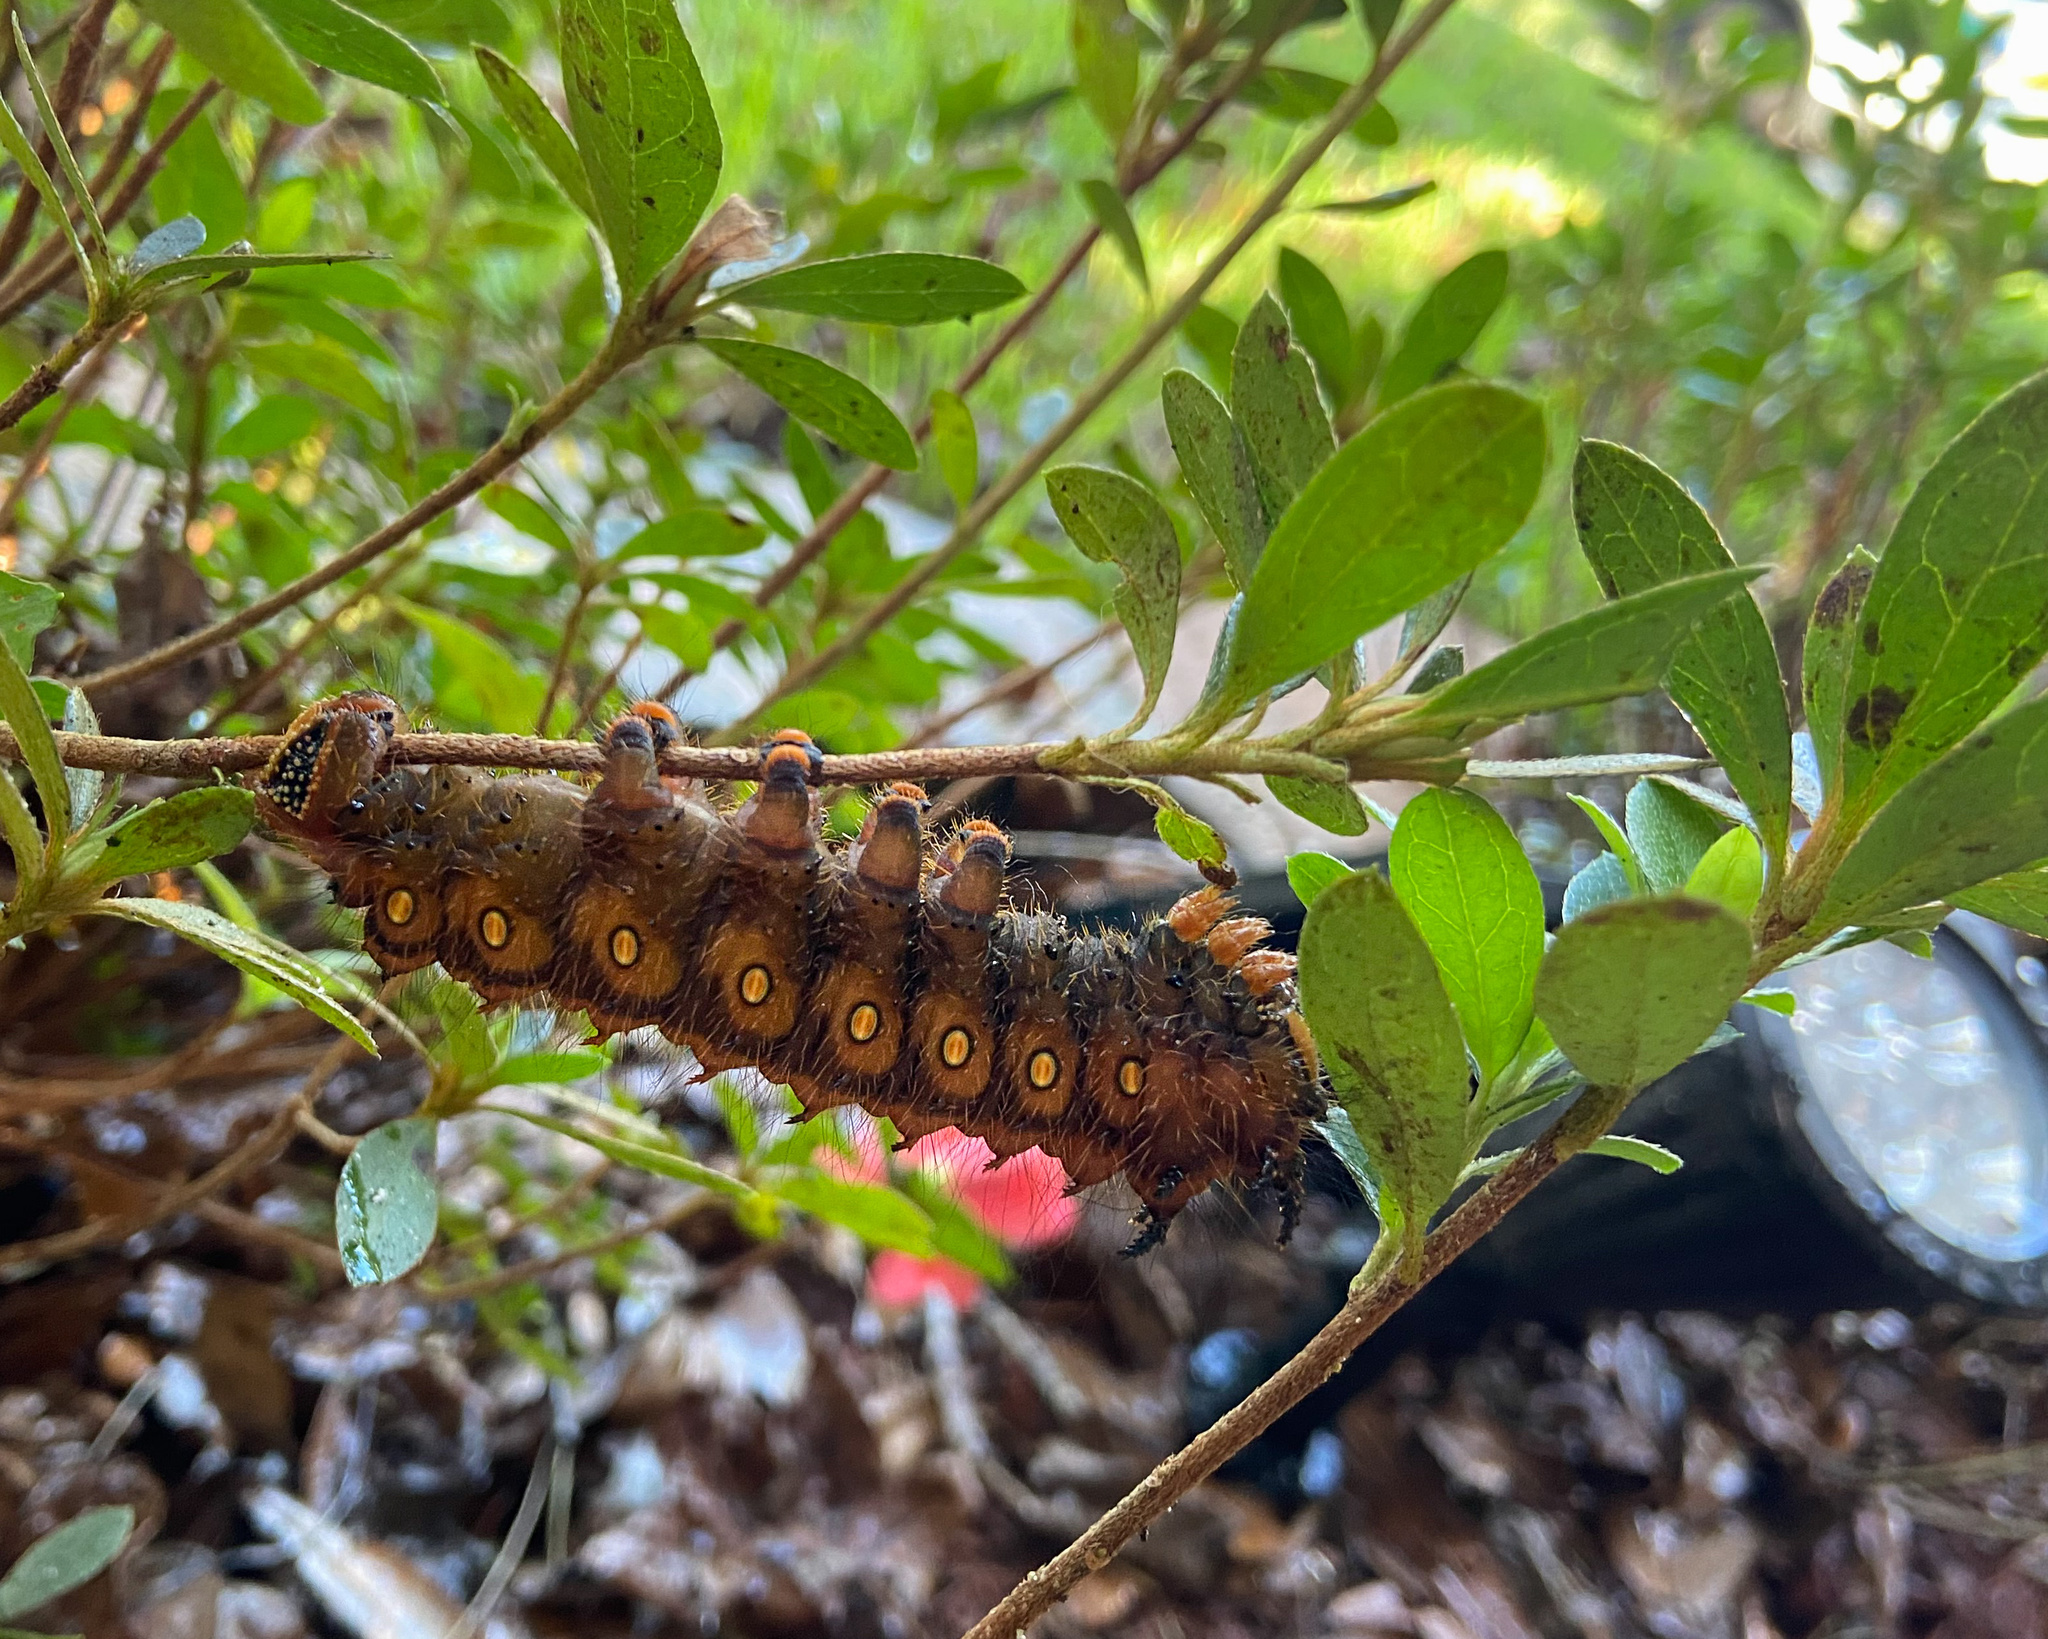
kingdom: Animalia
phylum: Arthropoda
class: Insecta
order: Lepidoptera
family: Saturniidae
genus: Eacles
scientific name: Eacles imperialis
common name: Imperial moth
